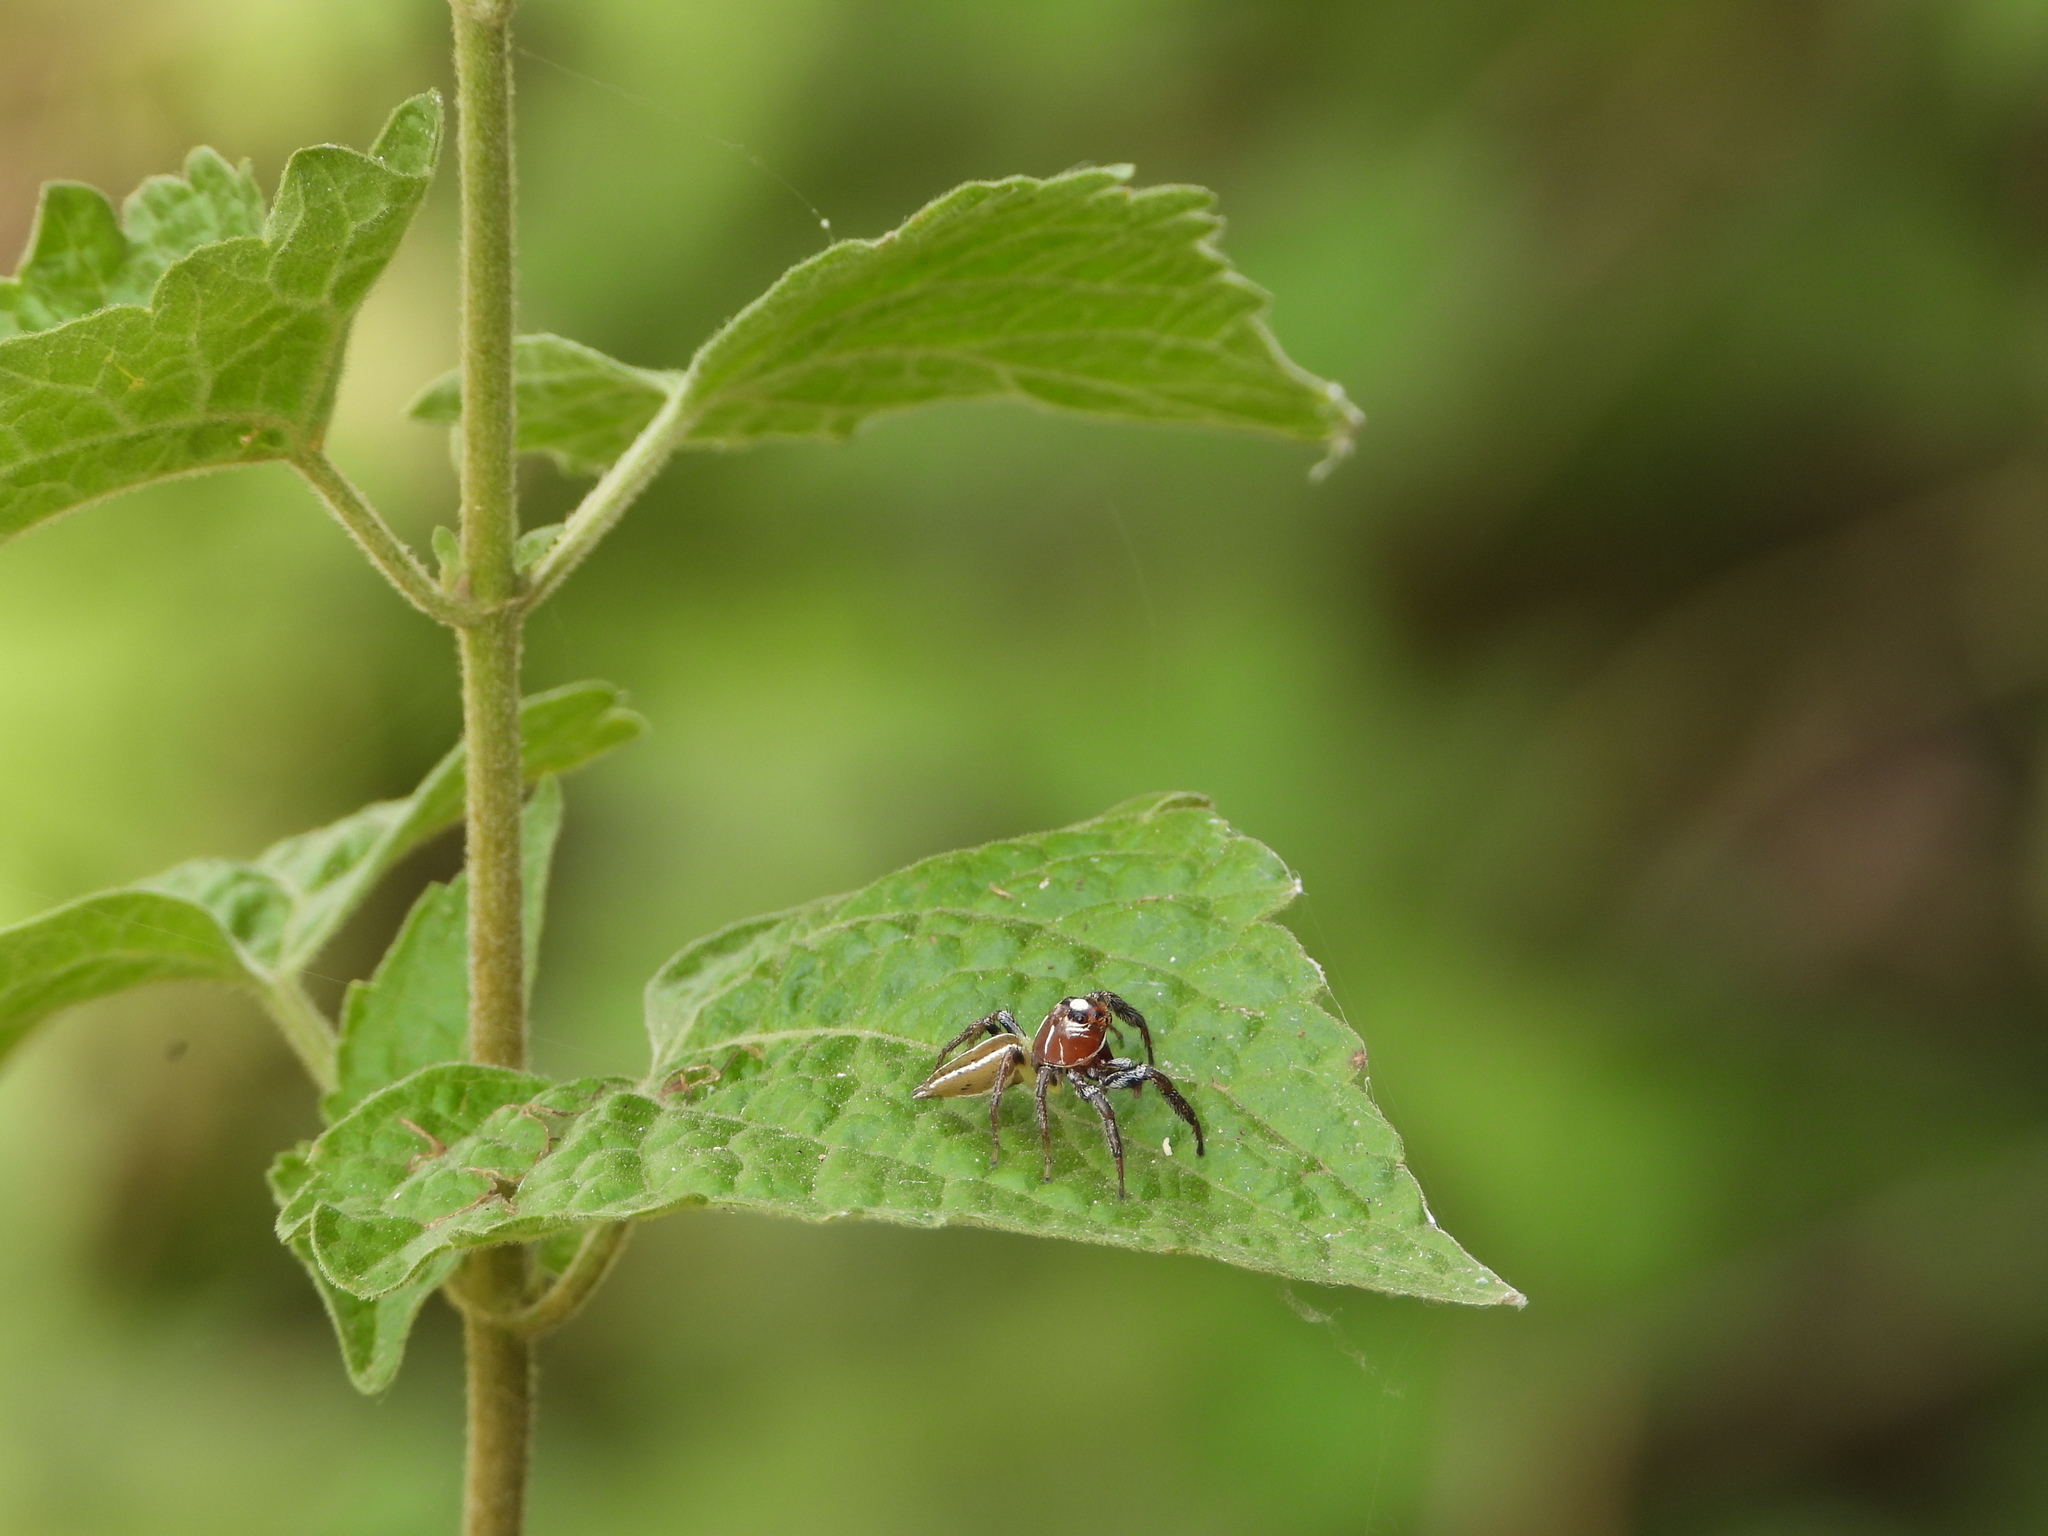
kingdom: Animalia
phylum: Arthropoda
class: Arachnida
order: Araneae
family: Salticidae
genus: Colonus
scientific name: Colonus sylvanus
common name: Jumping spiders
